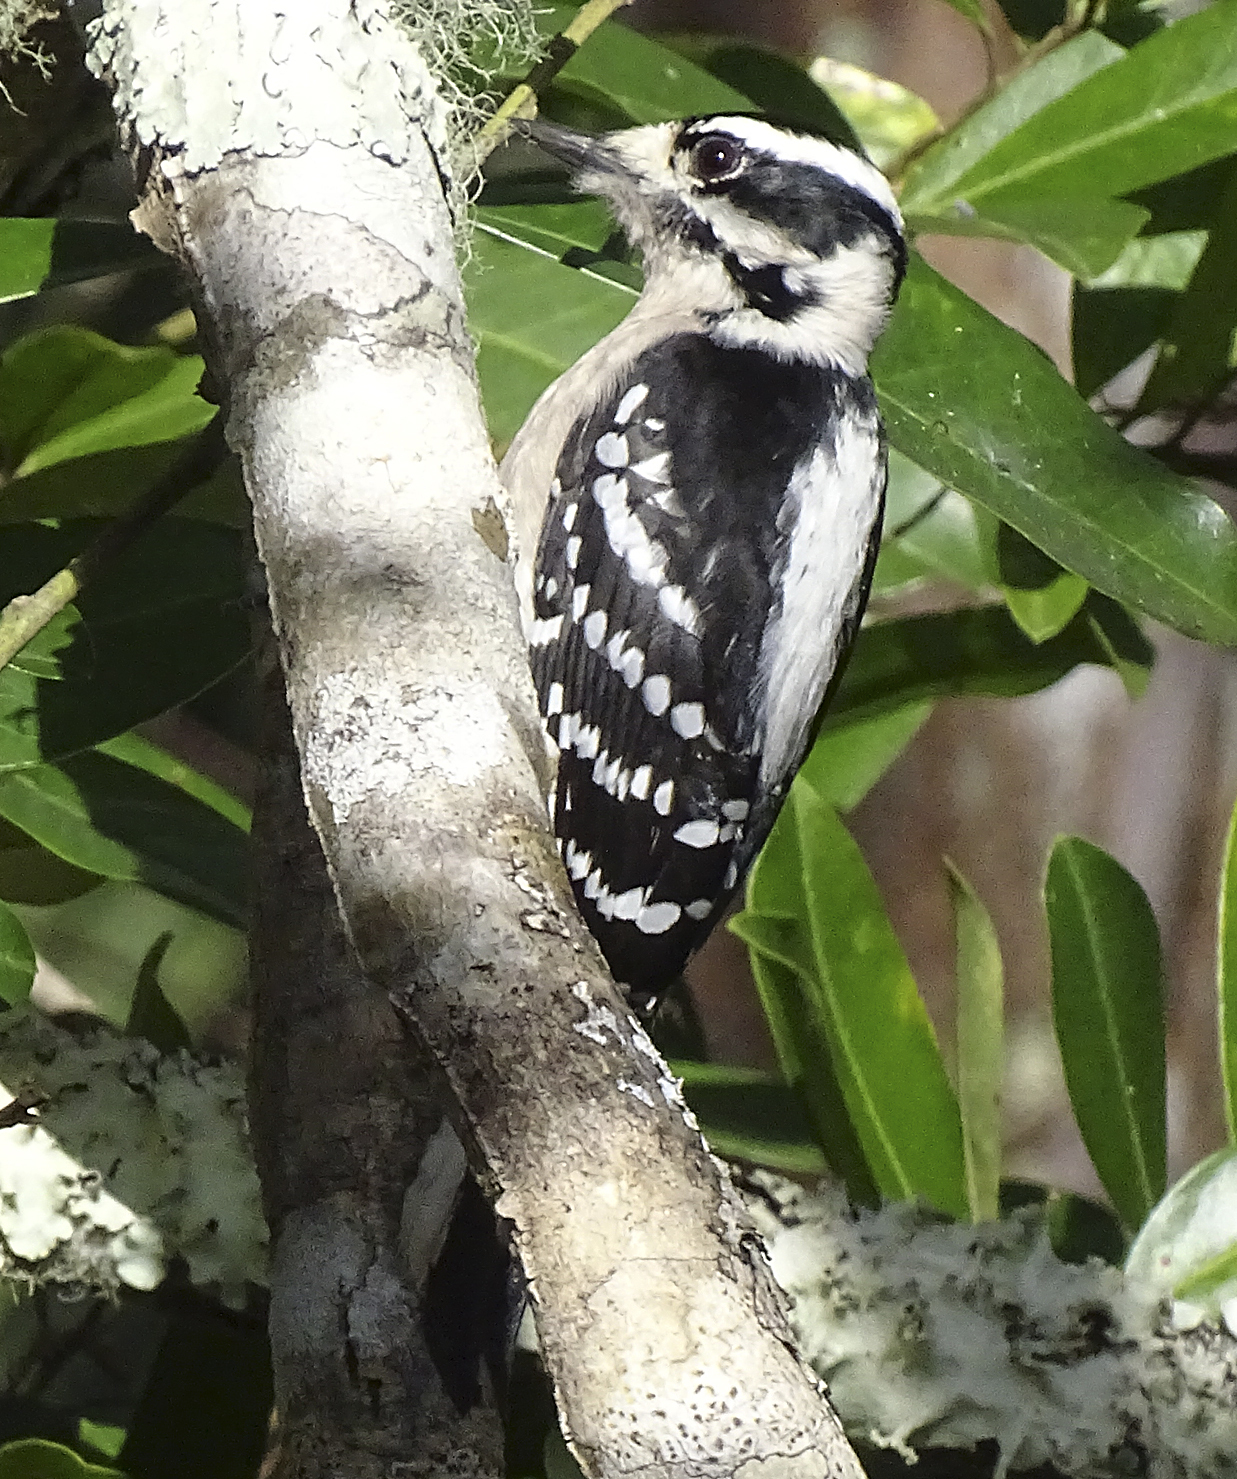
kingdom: Animalia
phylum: Chordata
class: Aves
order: Piciformes
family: Picidae
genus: Dryobates
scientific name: Dryobates pubescens
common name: Downy woodpecker
